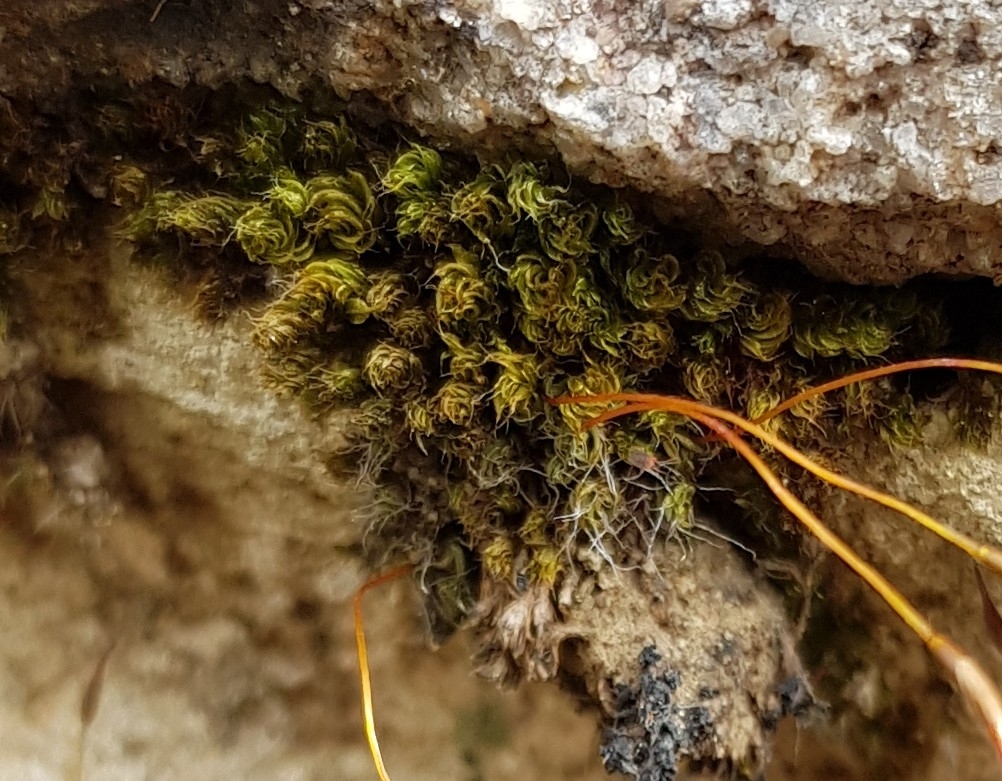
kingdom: Plantae
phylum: Bryophyta
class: Bryopsida
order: Pottiales
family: Pottiaceae
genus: Tortula
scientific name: Tortula muralis
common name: Wall screw-moss
